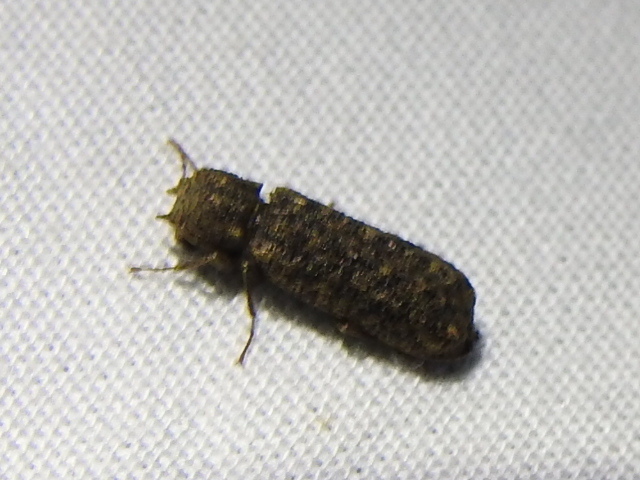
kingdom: Animalia
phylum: Arthropoda
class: Insecta
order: Coleoptera
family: Bostrichidae
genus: Lichenophanes
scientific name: Lichenophanes bicornis
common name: Two-horned powder-post beetle
